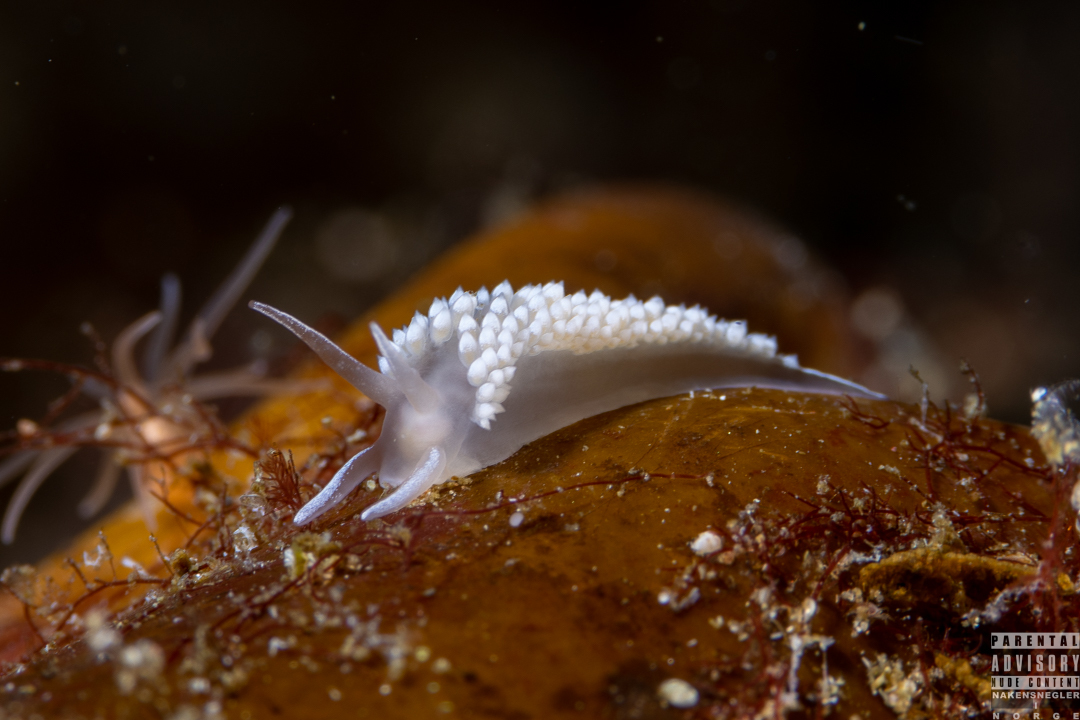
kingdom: Animalia
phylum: Mollusca
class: Gastropoda
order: Nudibranchia
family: Coryphellidae
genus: Coryphella
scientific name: Coryphella verrucosa
